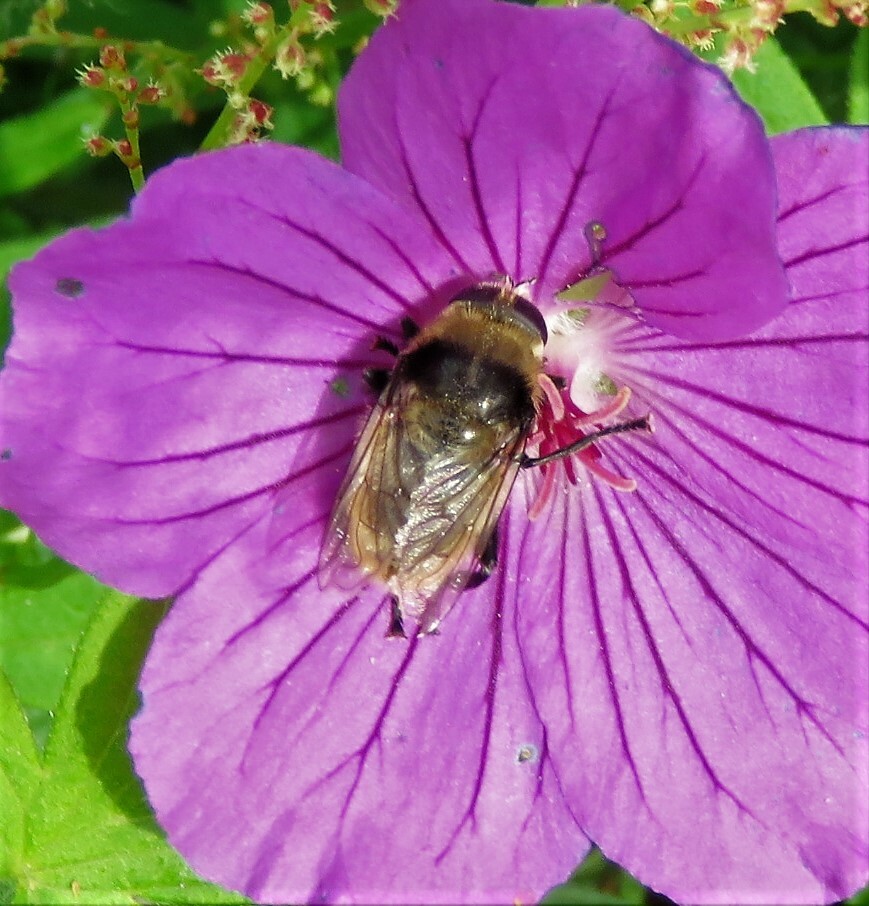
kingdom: Animalia
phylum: Arthropoda
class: Insecta
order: Diptera
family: Syrphidae
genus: Merodon
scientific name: Merodon equestris
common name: Greater bulb-fly
